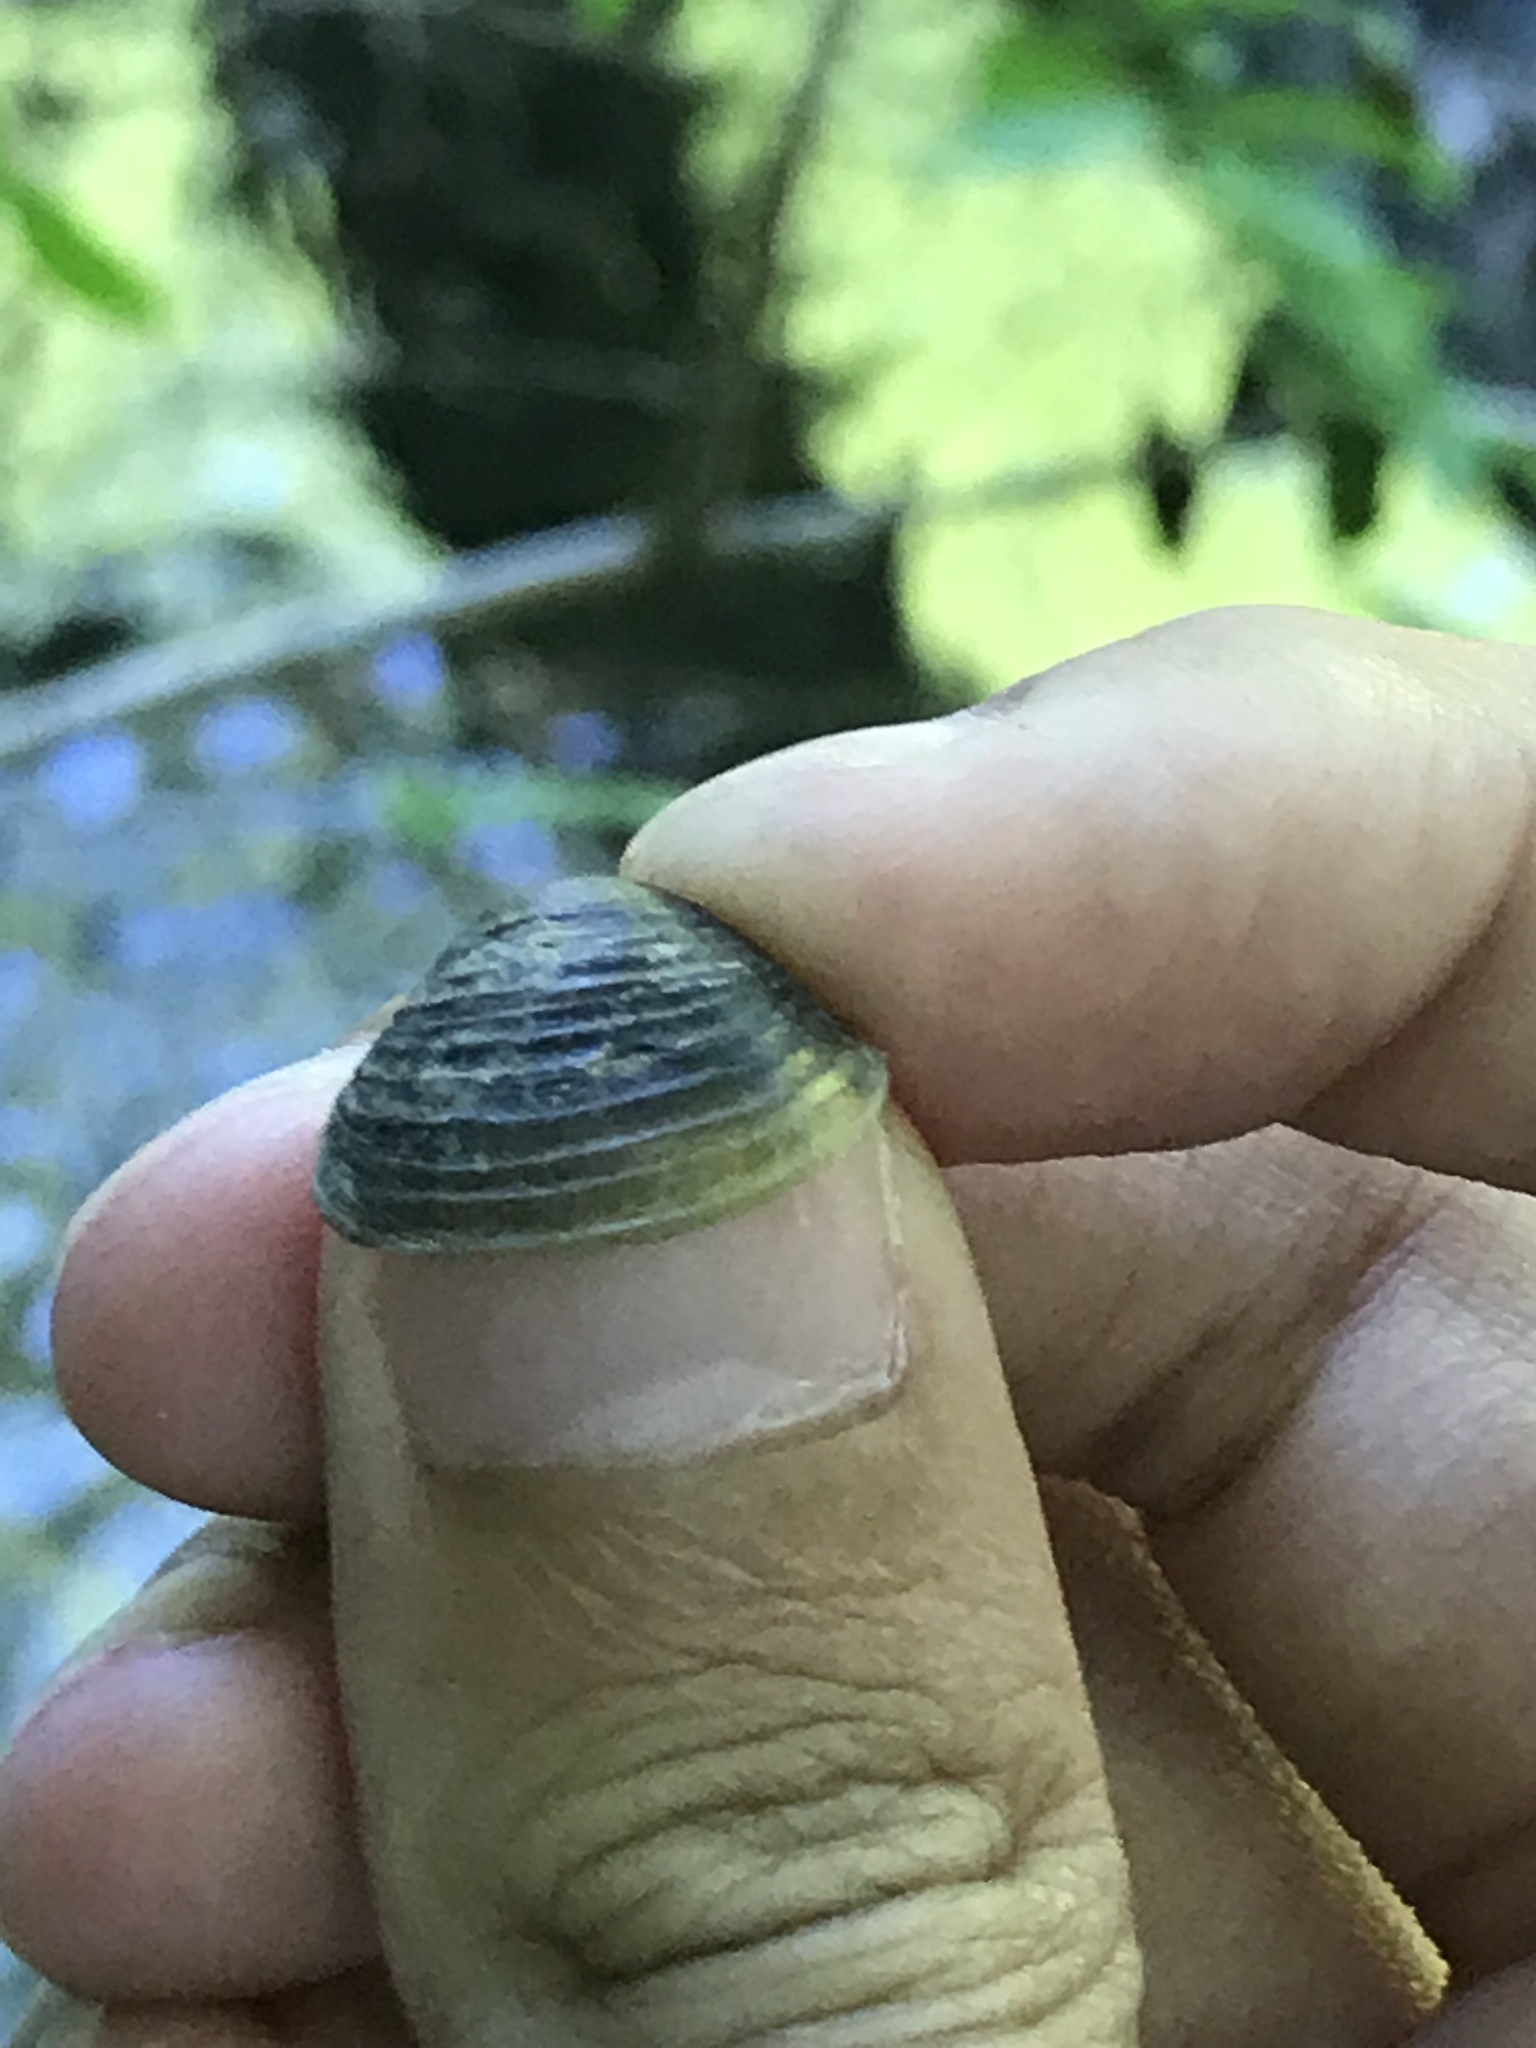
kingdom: Animalia
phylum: Mollusca
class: Bivalvia
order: Venerida
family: Cyrenidae
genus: Corbicula
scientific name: Corbicula fluminea
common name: Asian clam
